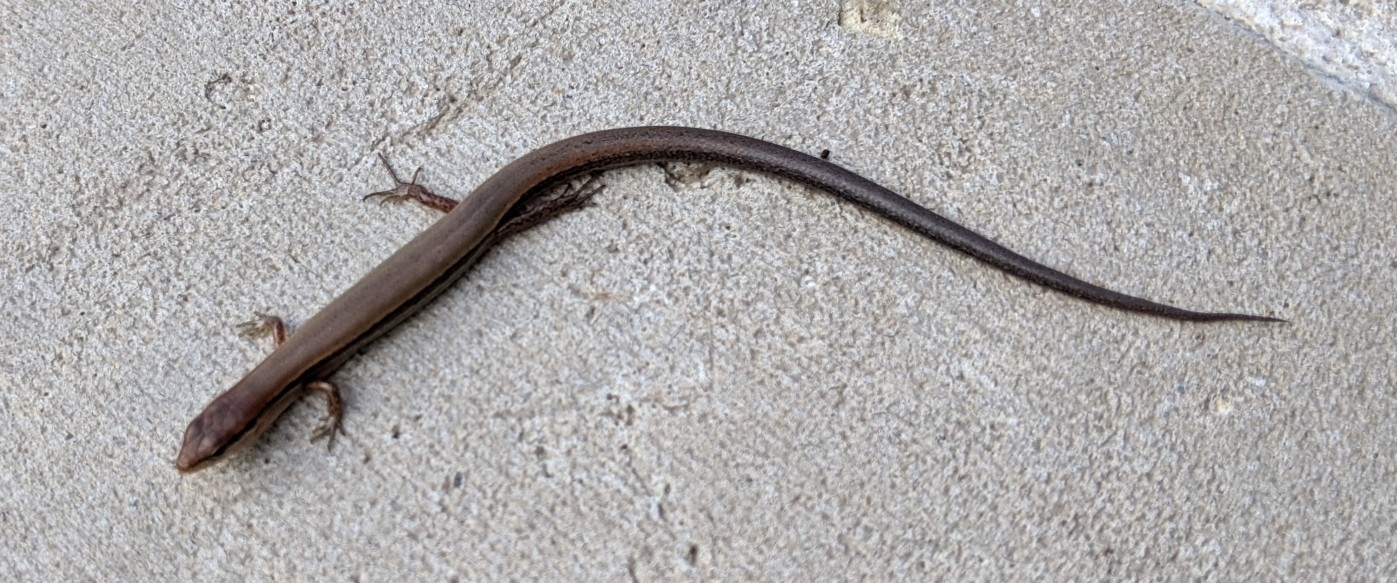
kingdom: Animalia
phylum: Chordata
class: Squamata
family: Scincidae
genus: Scincella
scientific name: Scincella lateralis
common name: Ground skink
